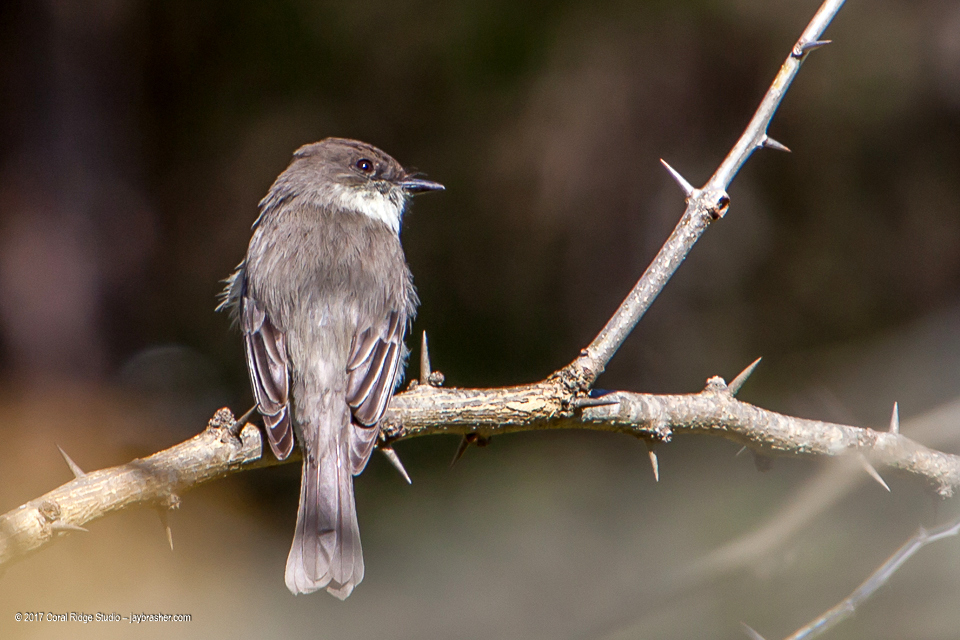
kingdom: Animalia
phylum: Chordata
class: Aves
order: Passeriformes
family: Tyrannidae
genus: Sayornis
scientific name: Sayornis phoebe
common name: Eastern phoebe
